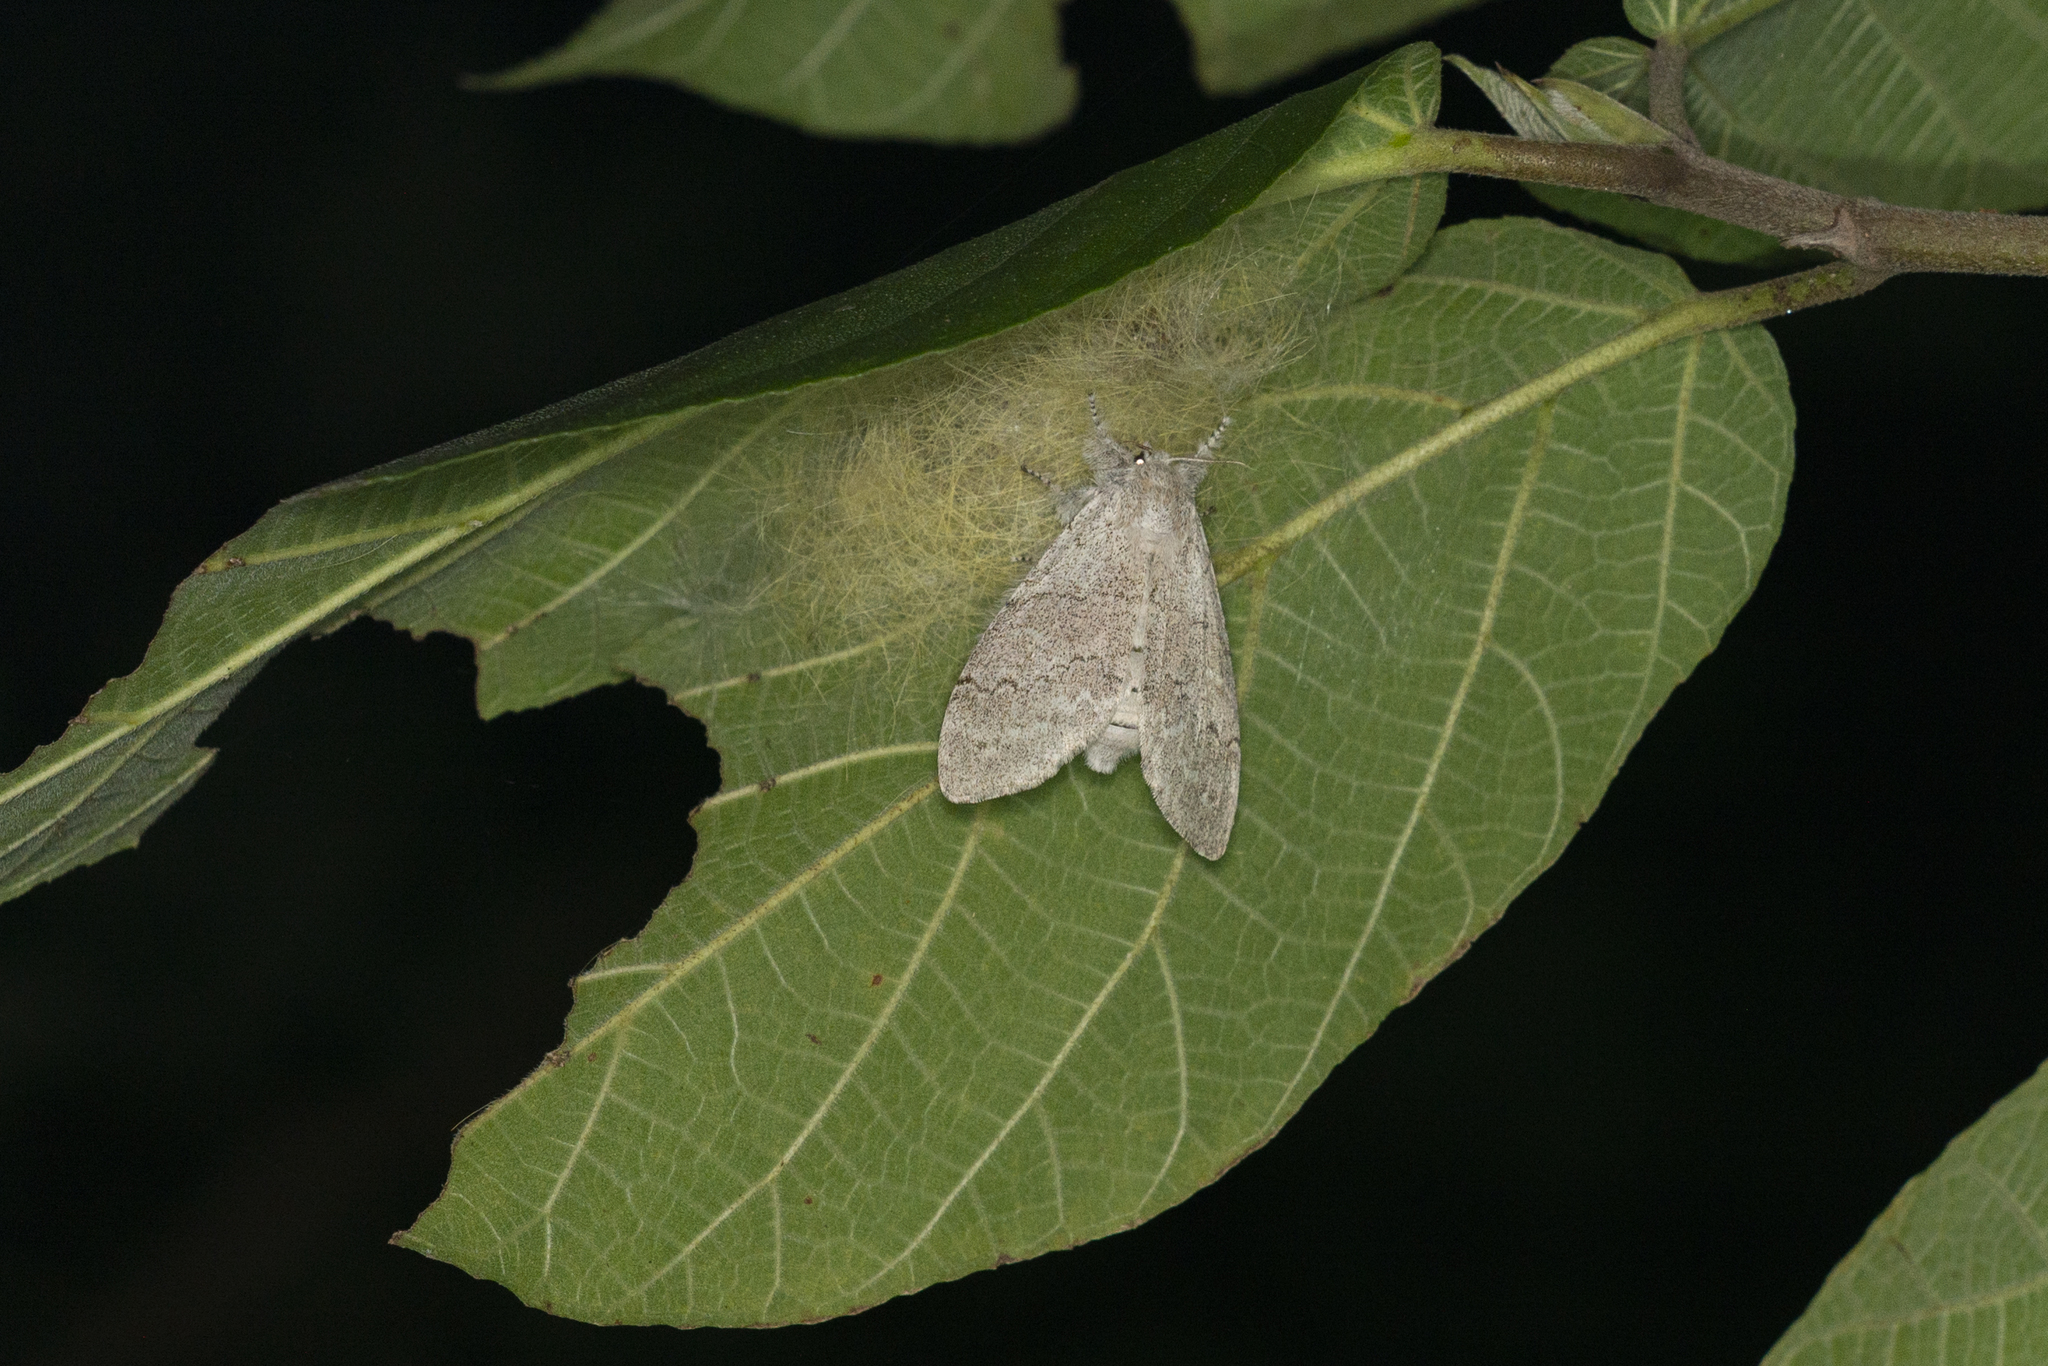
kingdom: Animalia
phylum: Arthropoda
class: Insecta
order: Lepidoptera
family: Erebidae
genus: Calliteara
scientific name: Calliteara grotei
